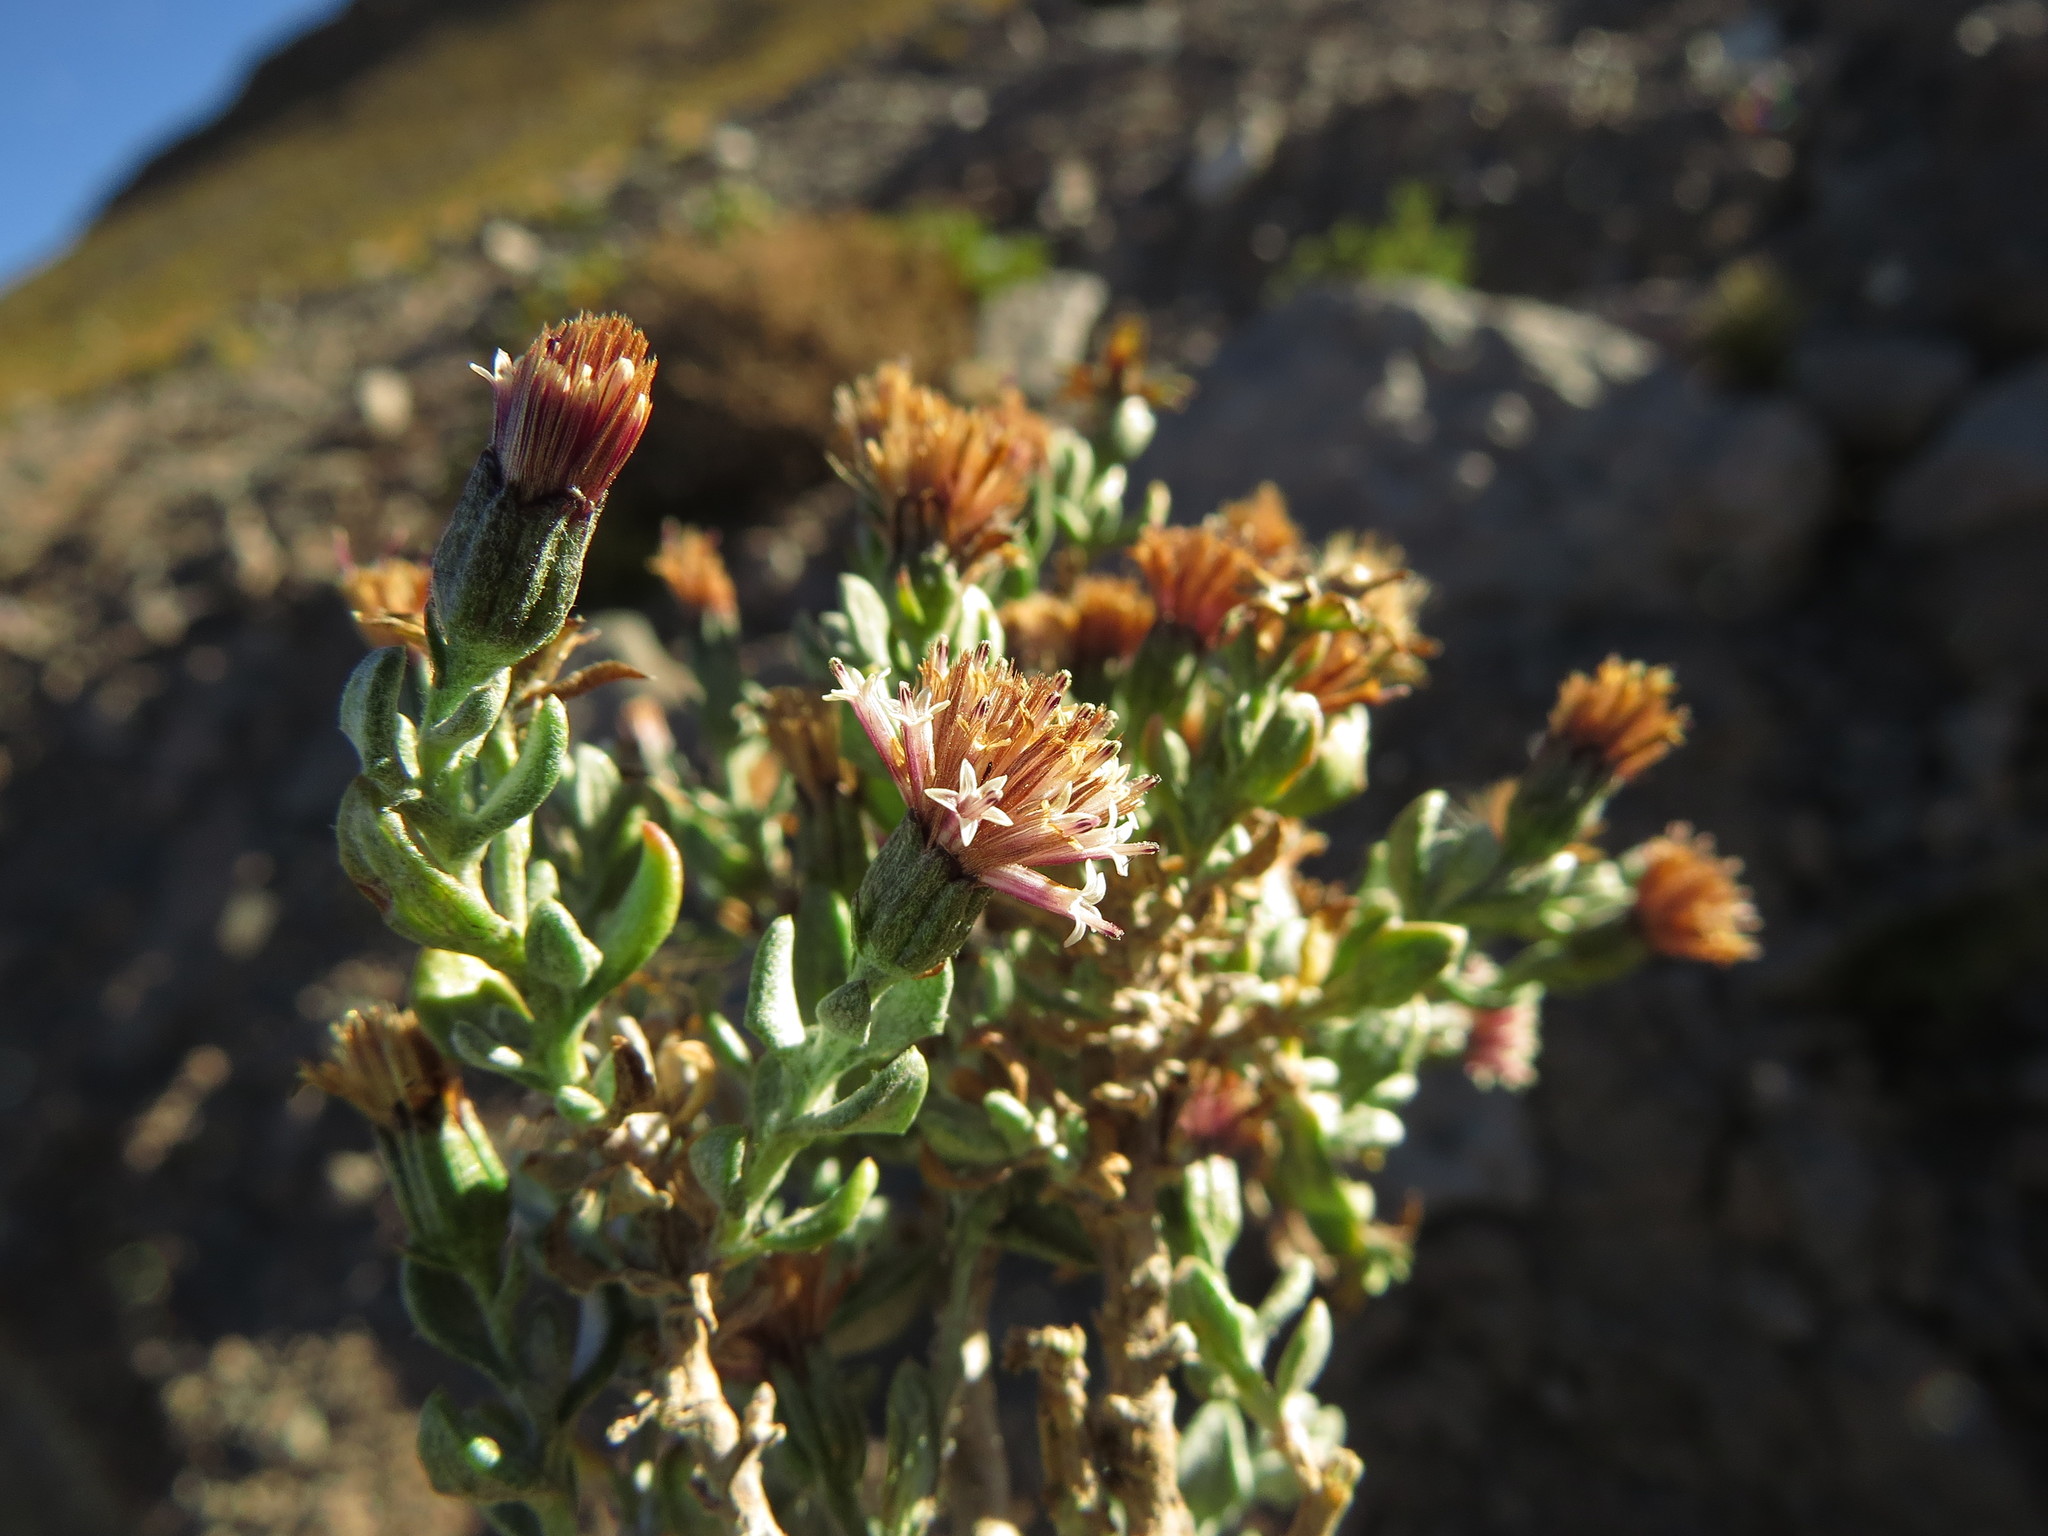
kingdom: Plantae
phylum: Tracheophyta
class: Magnoliopsida
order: Asterales
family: Asteraceae
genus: Chersodoma
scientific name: Chersodoma candida
